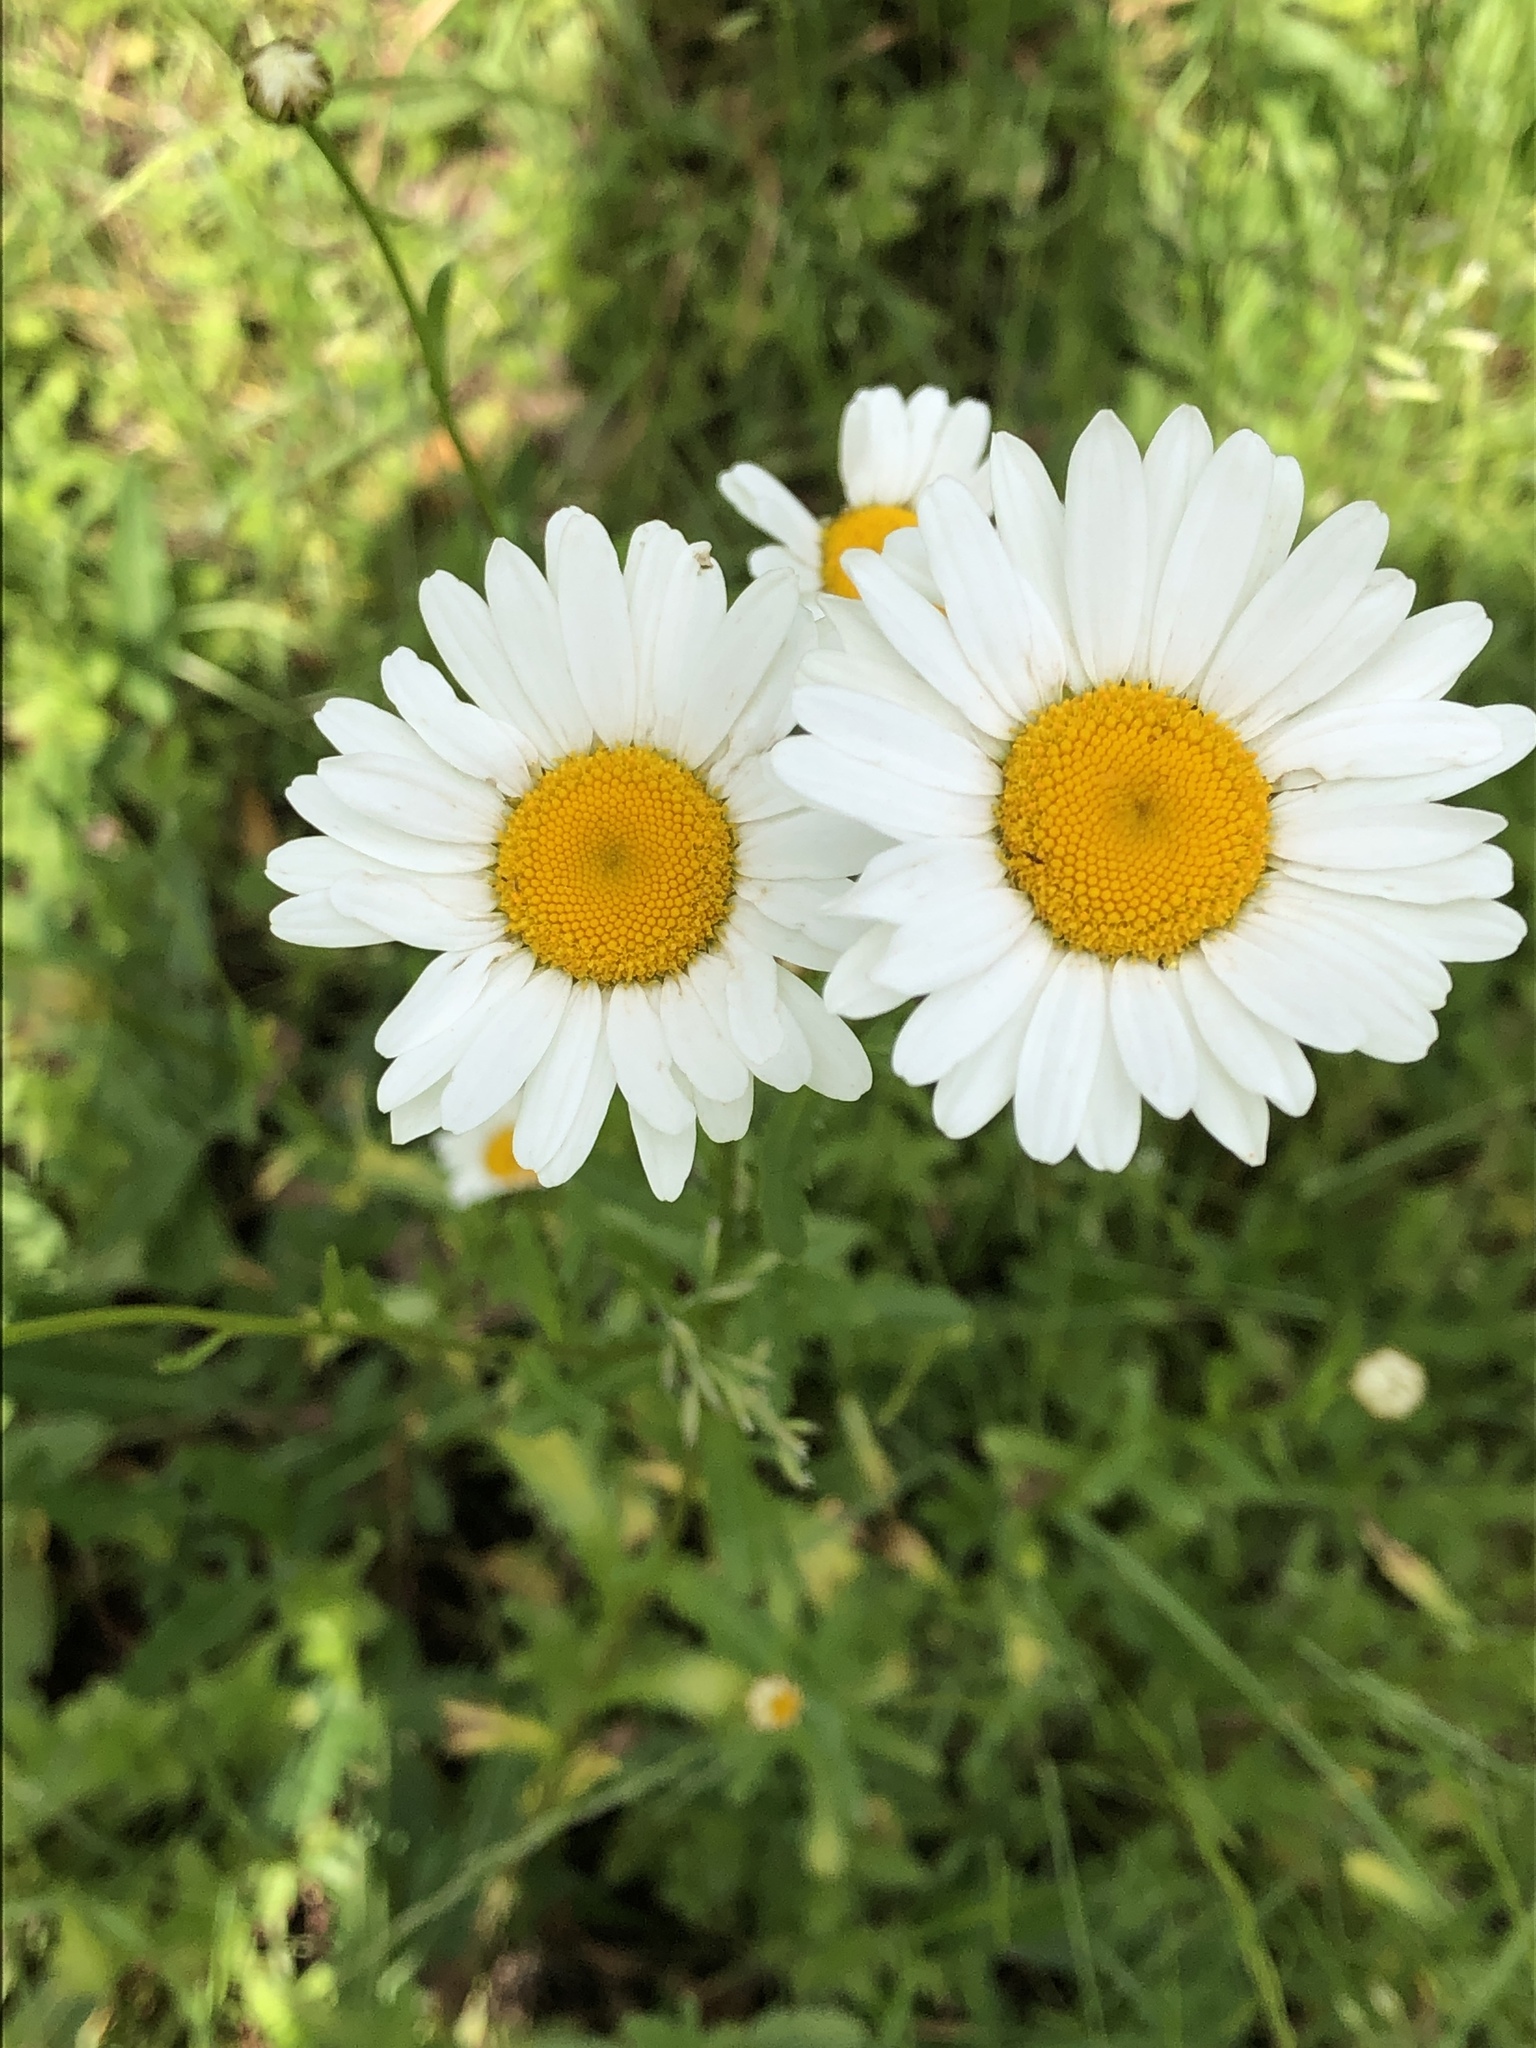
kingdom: Plantae
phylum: Tracheophyta
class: Magnoliopsida
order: Asterales
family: Asteraceae
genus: Leucanthemum
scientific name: Leucanthemum vulgare
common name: Oxeye daisy
